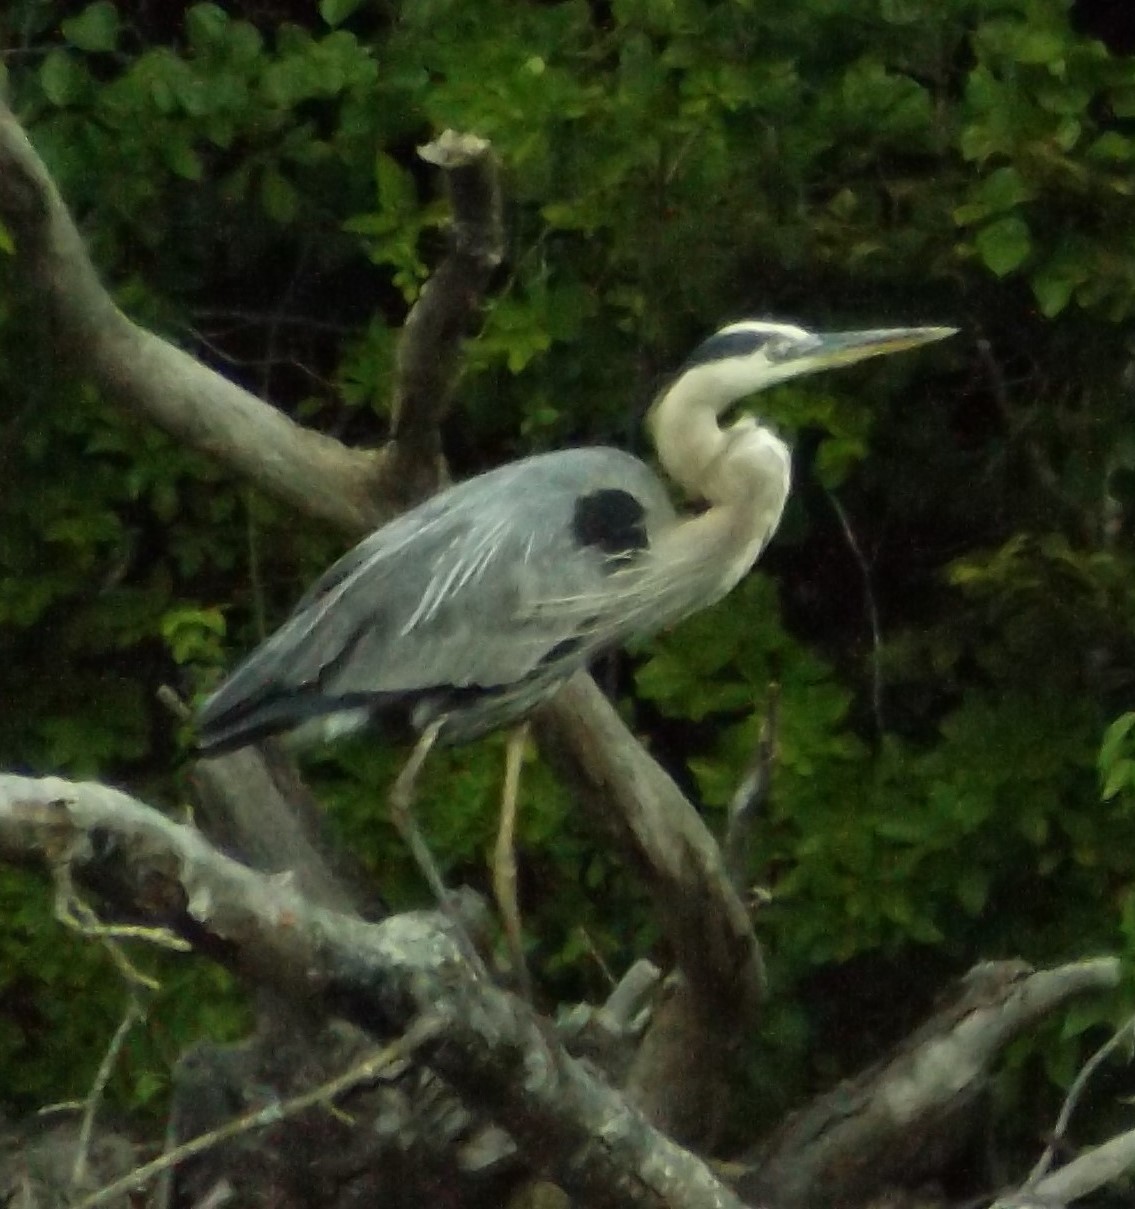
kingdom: Animalia
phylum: Chordata
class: Aves
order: Pelecaniformes
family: Ardeidae
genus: Ardea
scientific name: Ardea herodias
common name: Great blue heron
